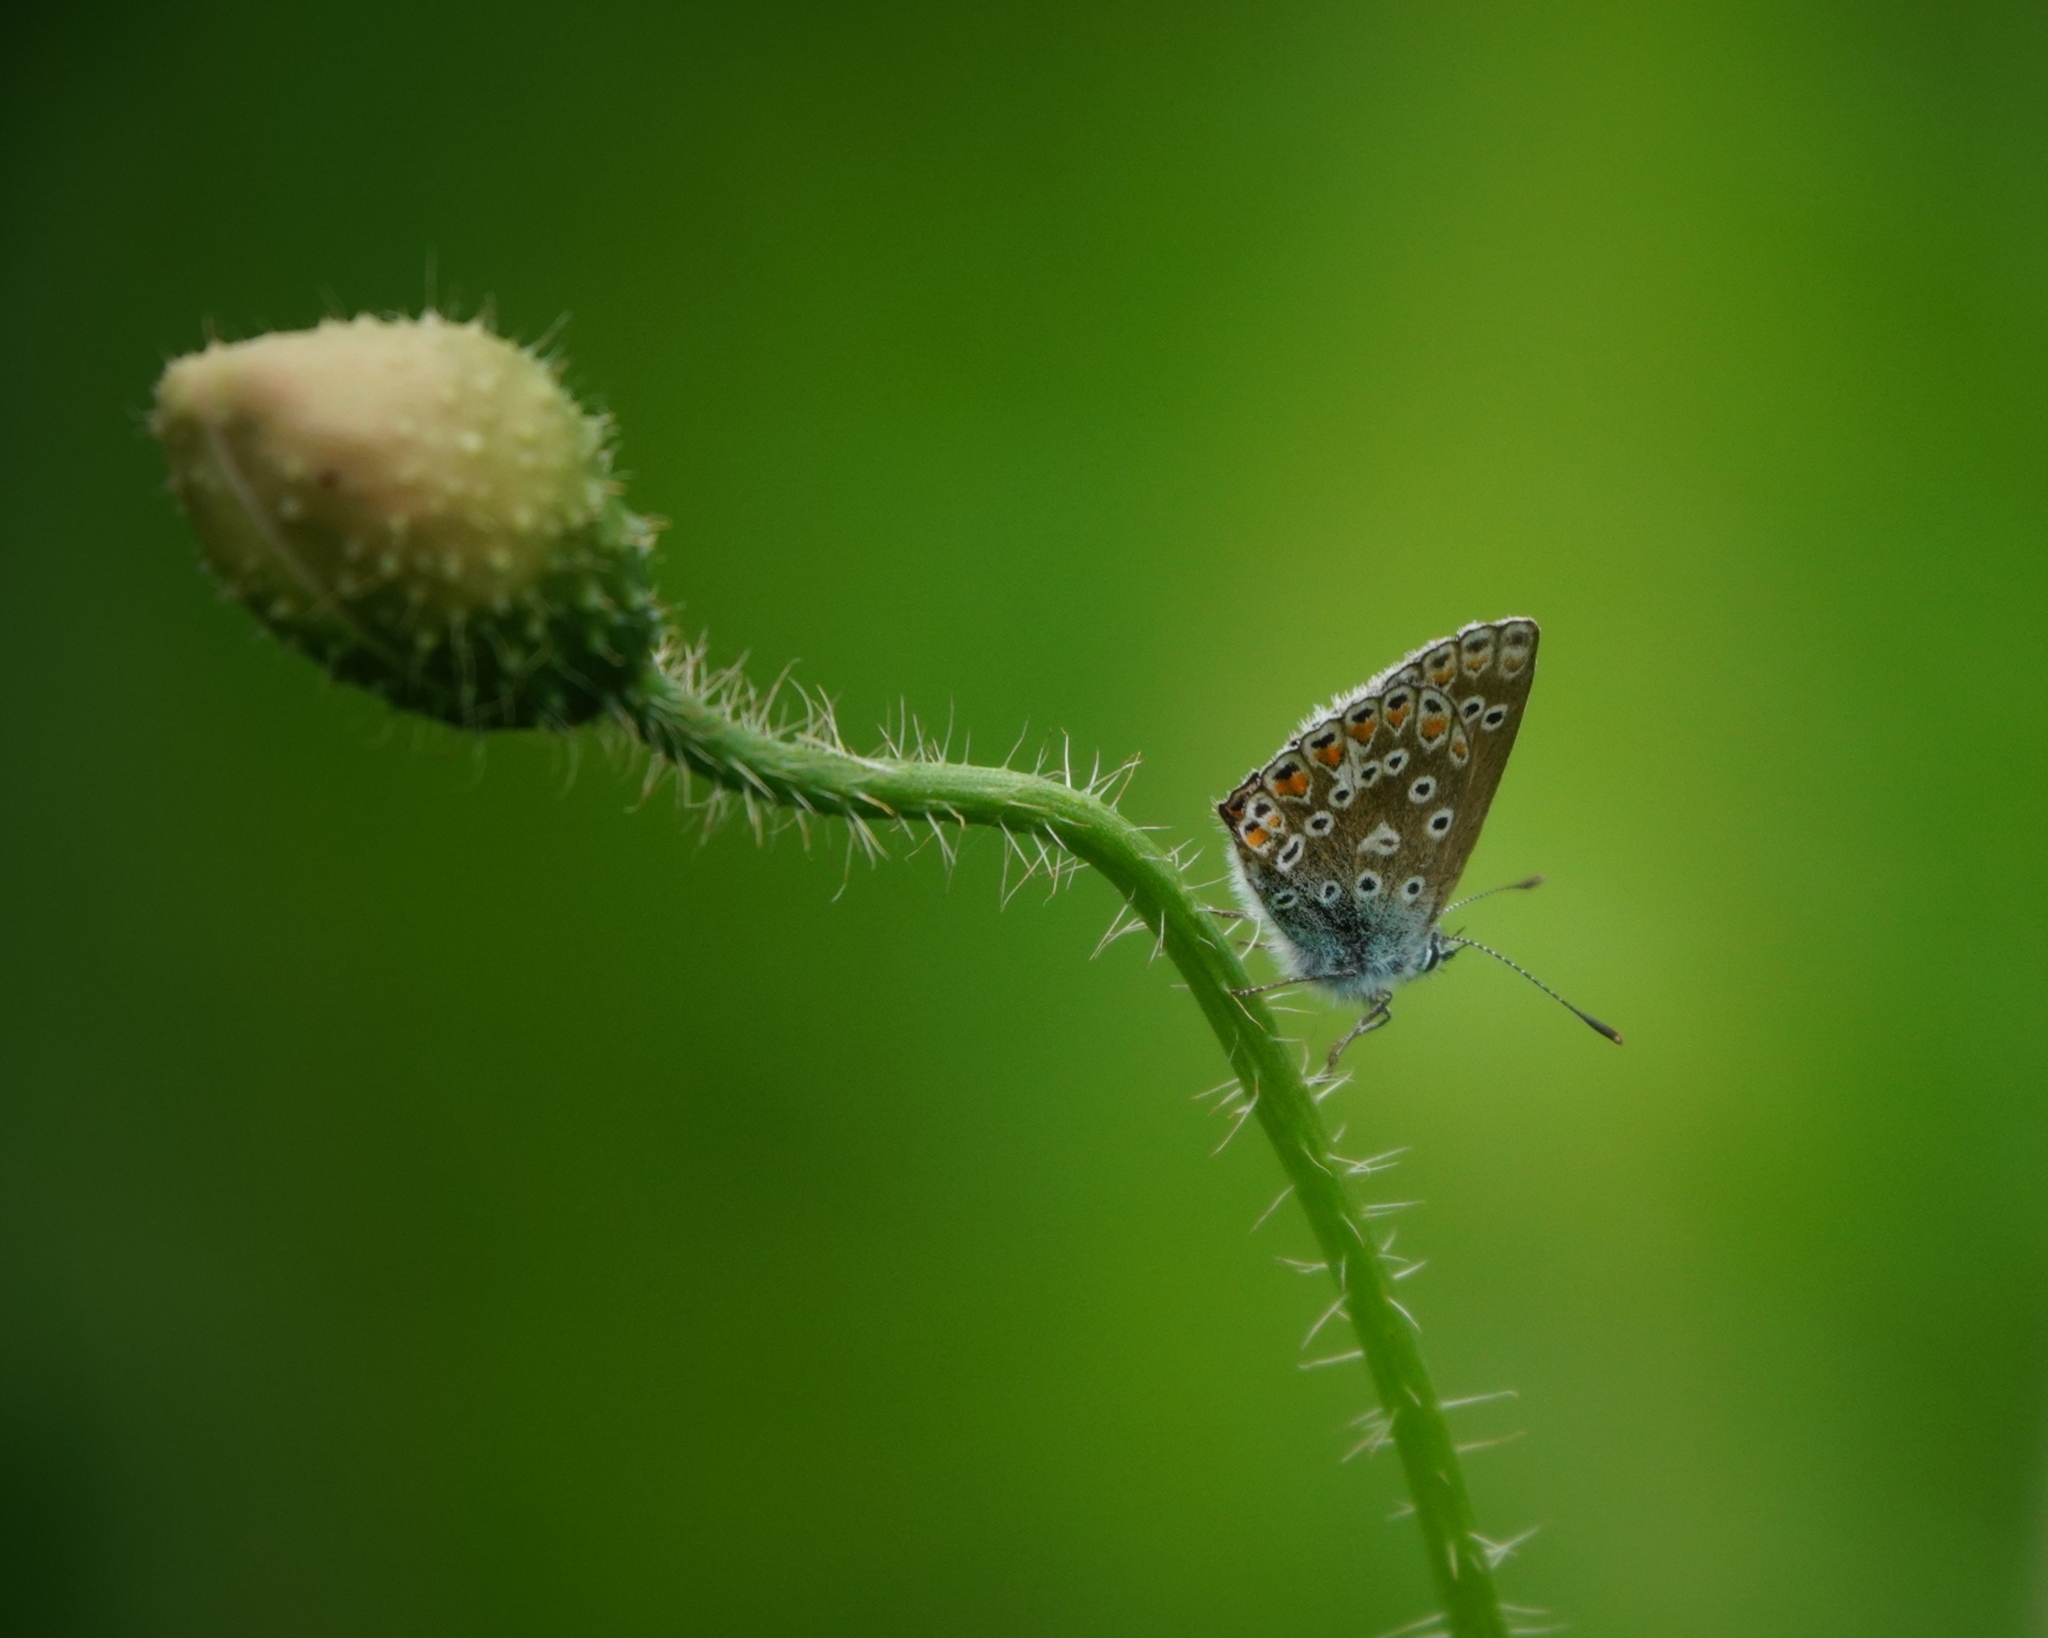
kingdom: Animalia
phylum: Arthropoda
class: Insecta
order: Lepidoptera
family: Lycaenidae
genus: Polyommatus
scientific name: Polyommatus icarus
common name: Common blue
